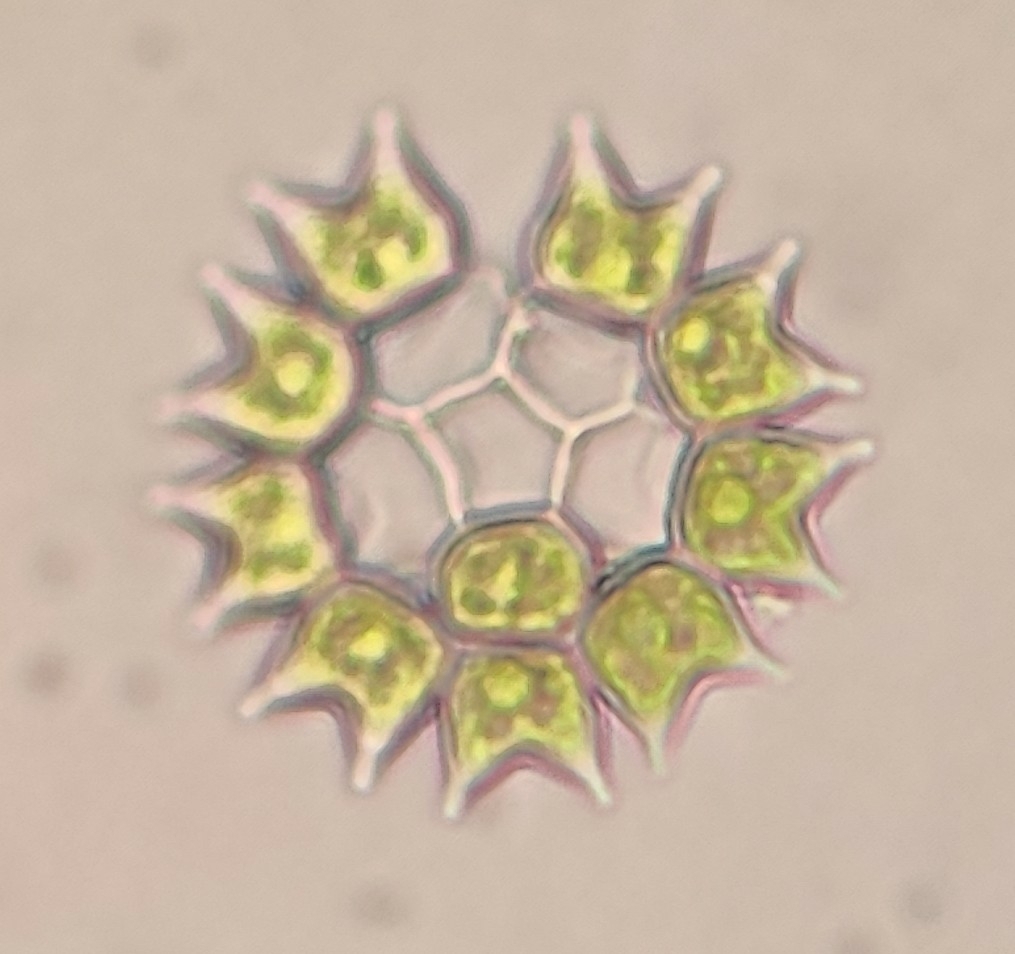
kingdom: Plantae
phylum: Chlorophyta
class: Chlorophyceae
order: Sphaeropleales
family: Hydrodictyaceae
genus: Pseudopediastrum
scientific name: Pseudopediastrum boryanum
